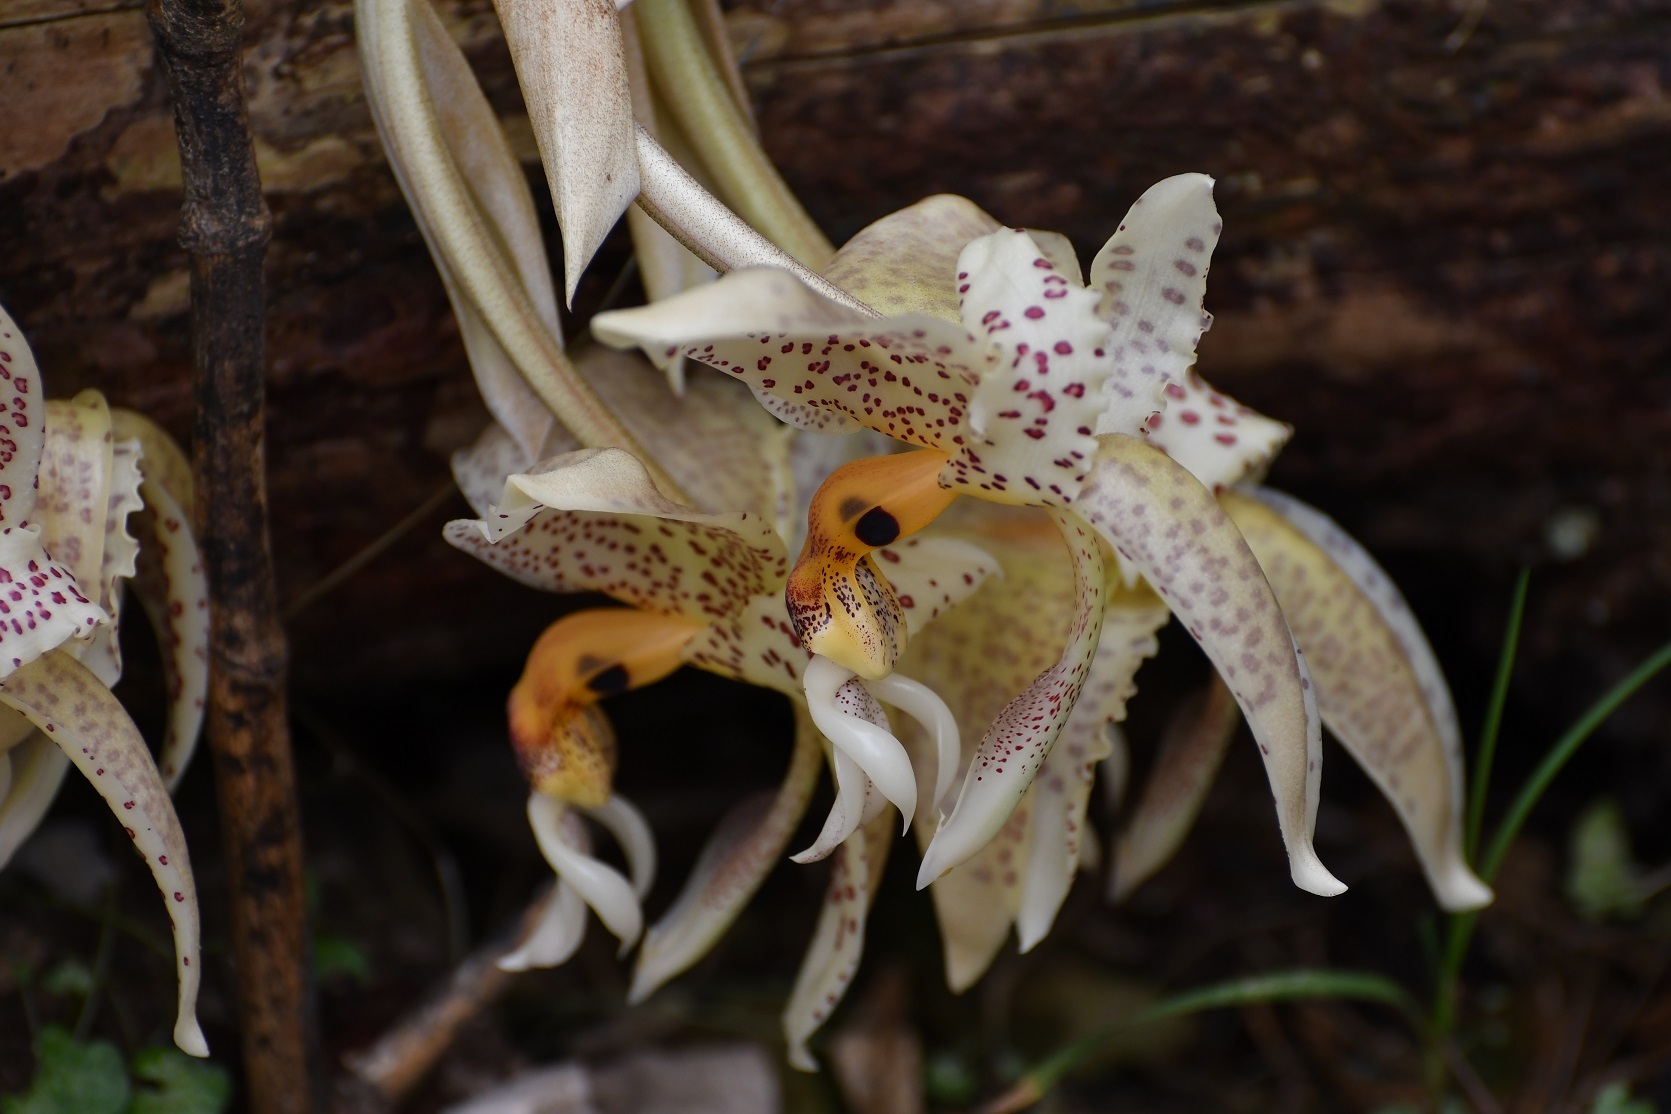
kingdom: Plantae
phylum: Tracheophyta
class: Liliopsida
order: Asparagales
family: Orchidaceae
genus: Stanhopea
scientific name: Stanhopea oculata
